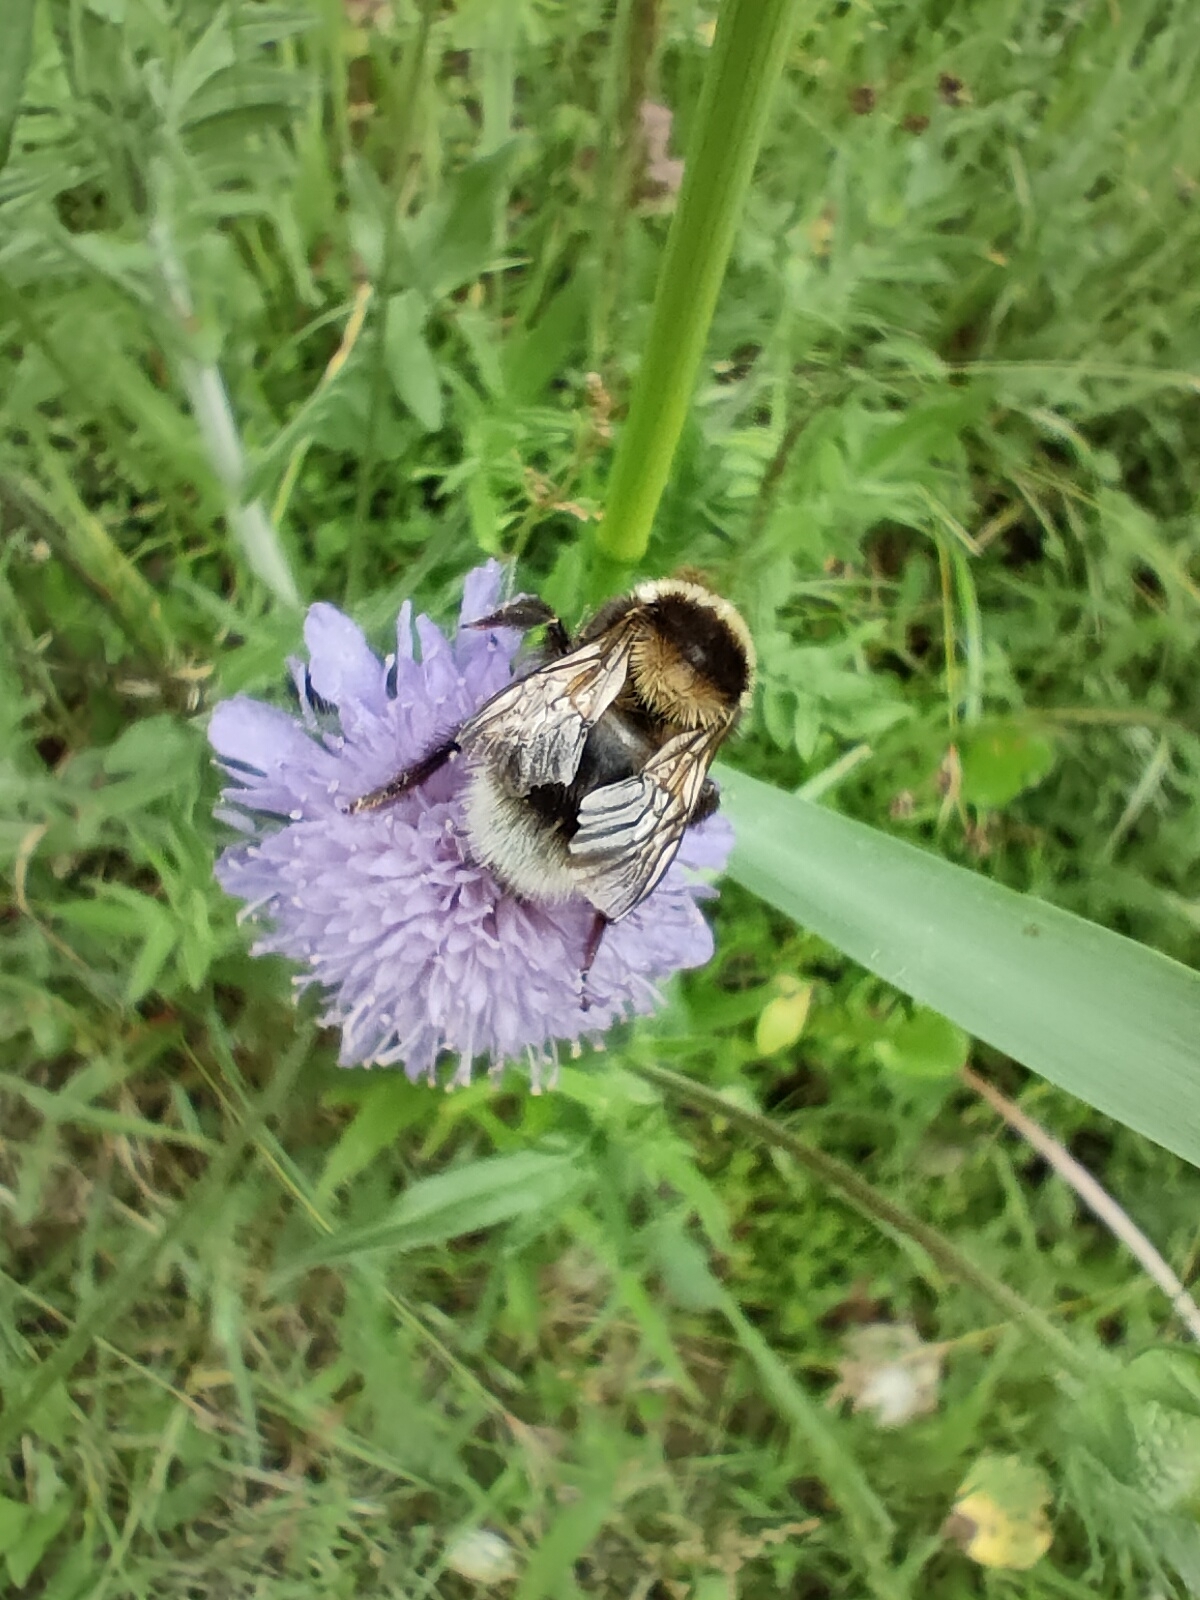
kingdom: Animalia
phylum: Arthropoda
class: Insecta
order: Hymenoptera
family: Apidae
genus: Bombus
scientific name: Bombus hortorum
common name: Garden bumblebee
